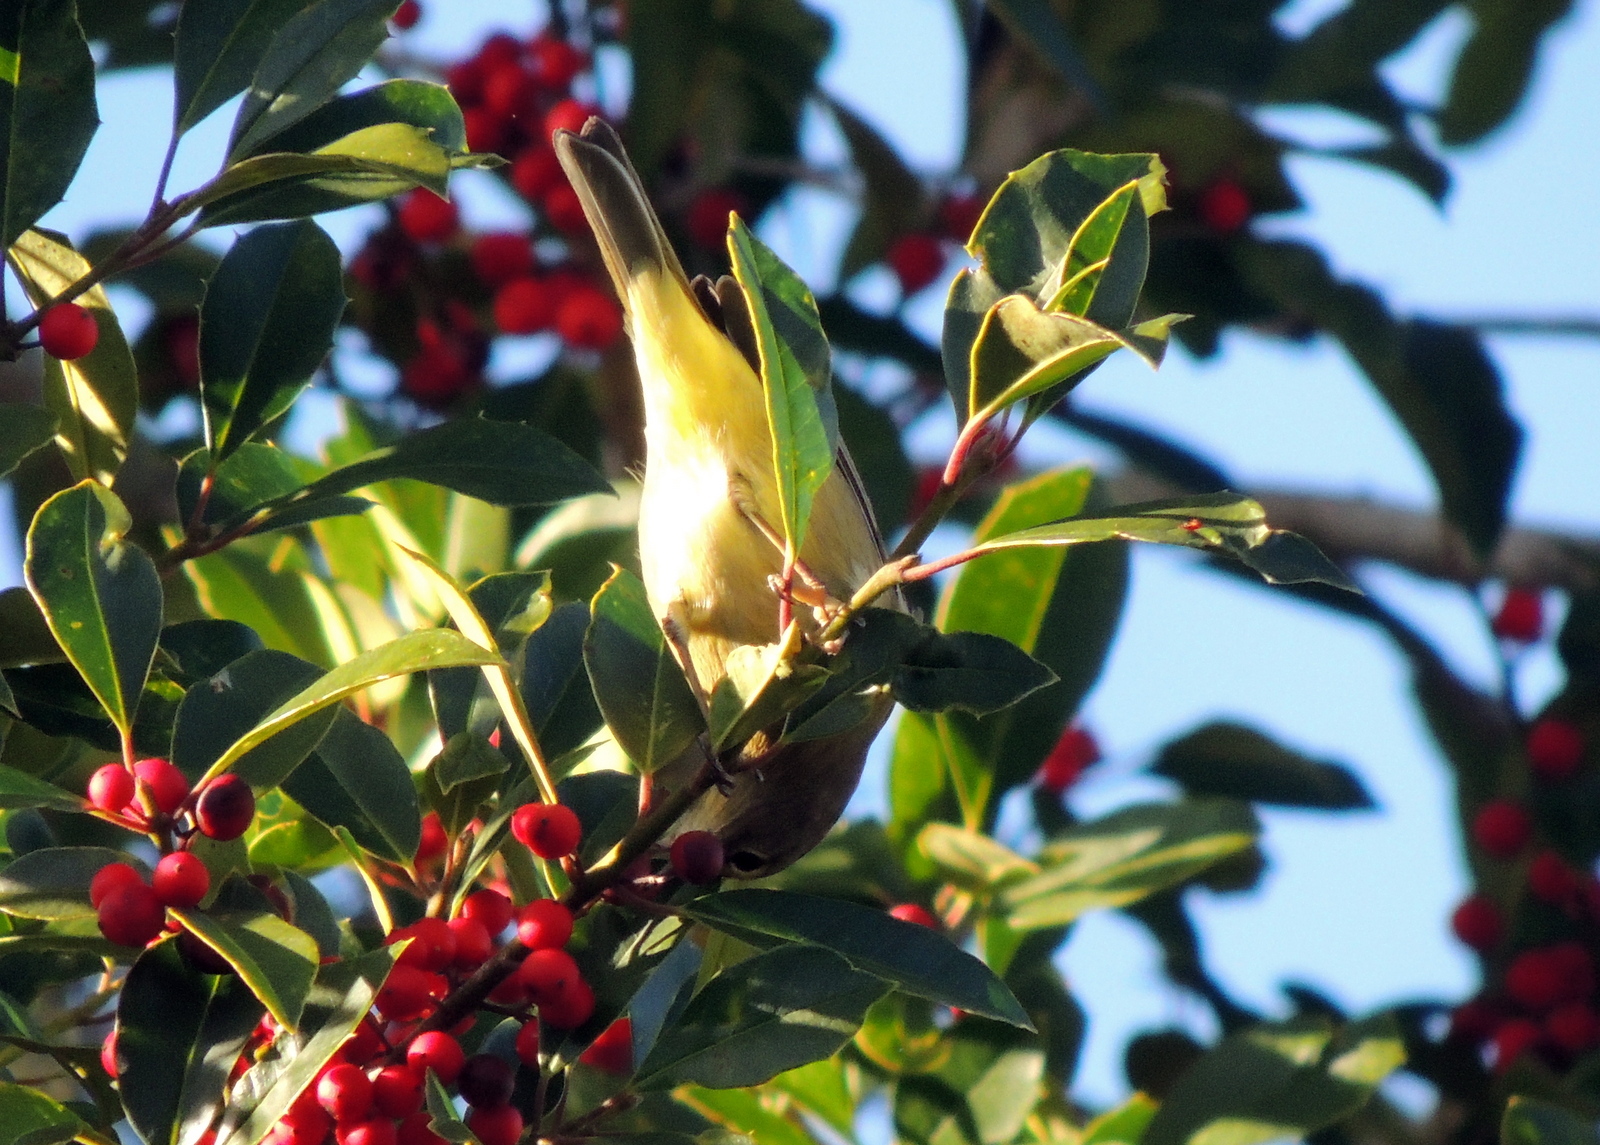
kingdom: Animalia
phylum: Chordata
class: Aves
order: Passeriformes
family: Parulidae
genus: Leiothlypis
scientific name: Leiothlypis celata
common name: Orange-crowned warbler
